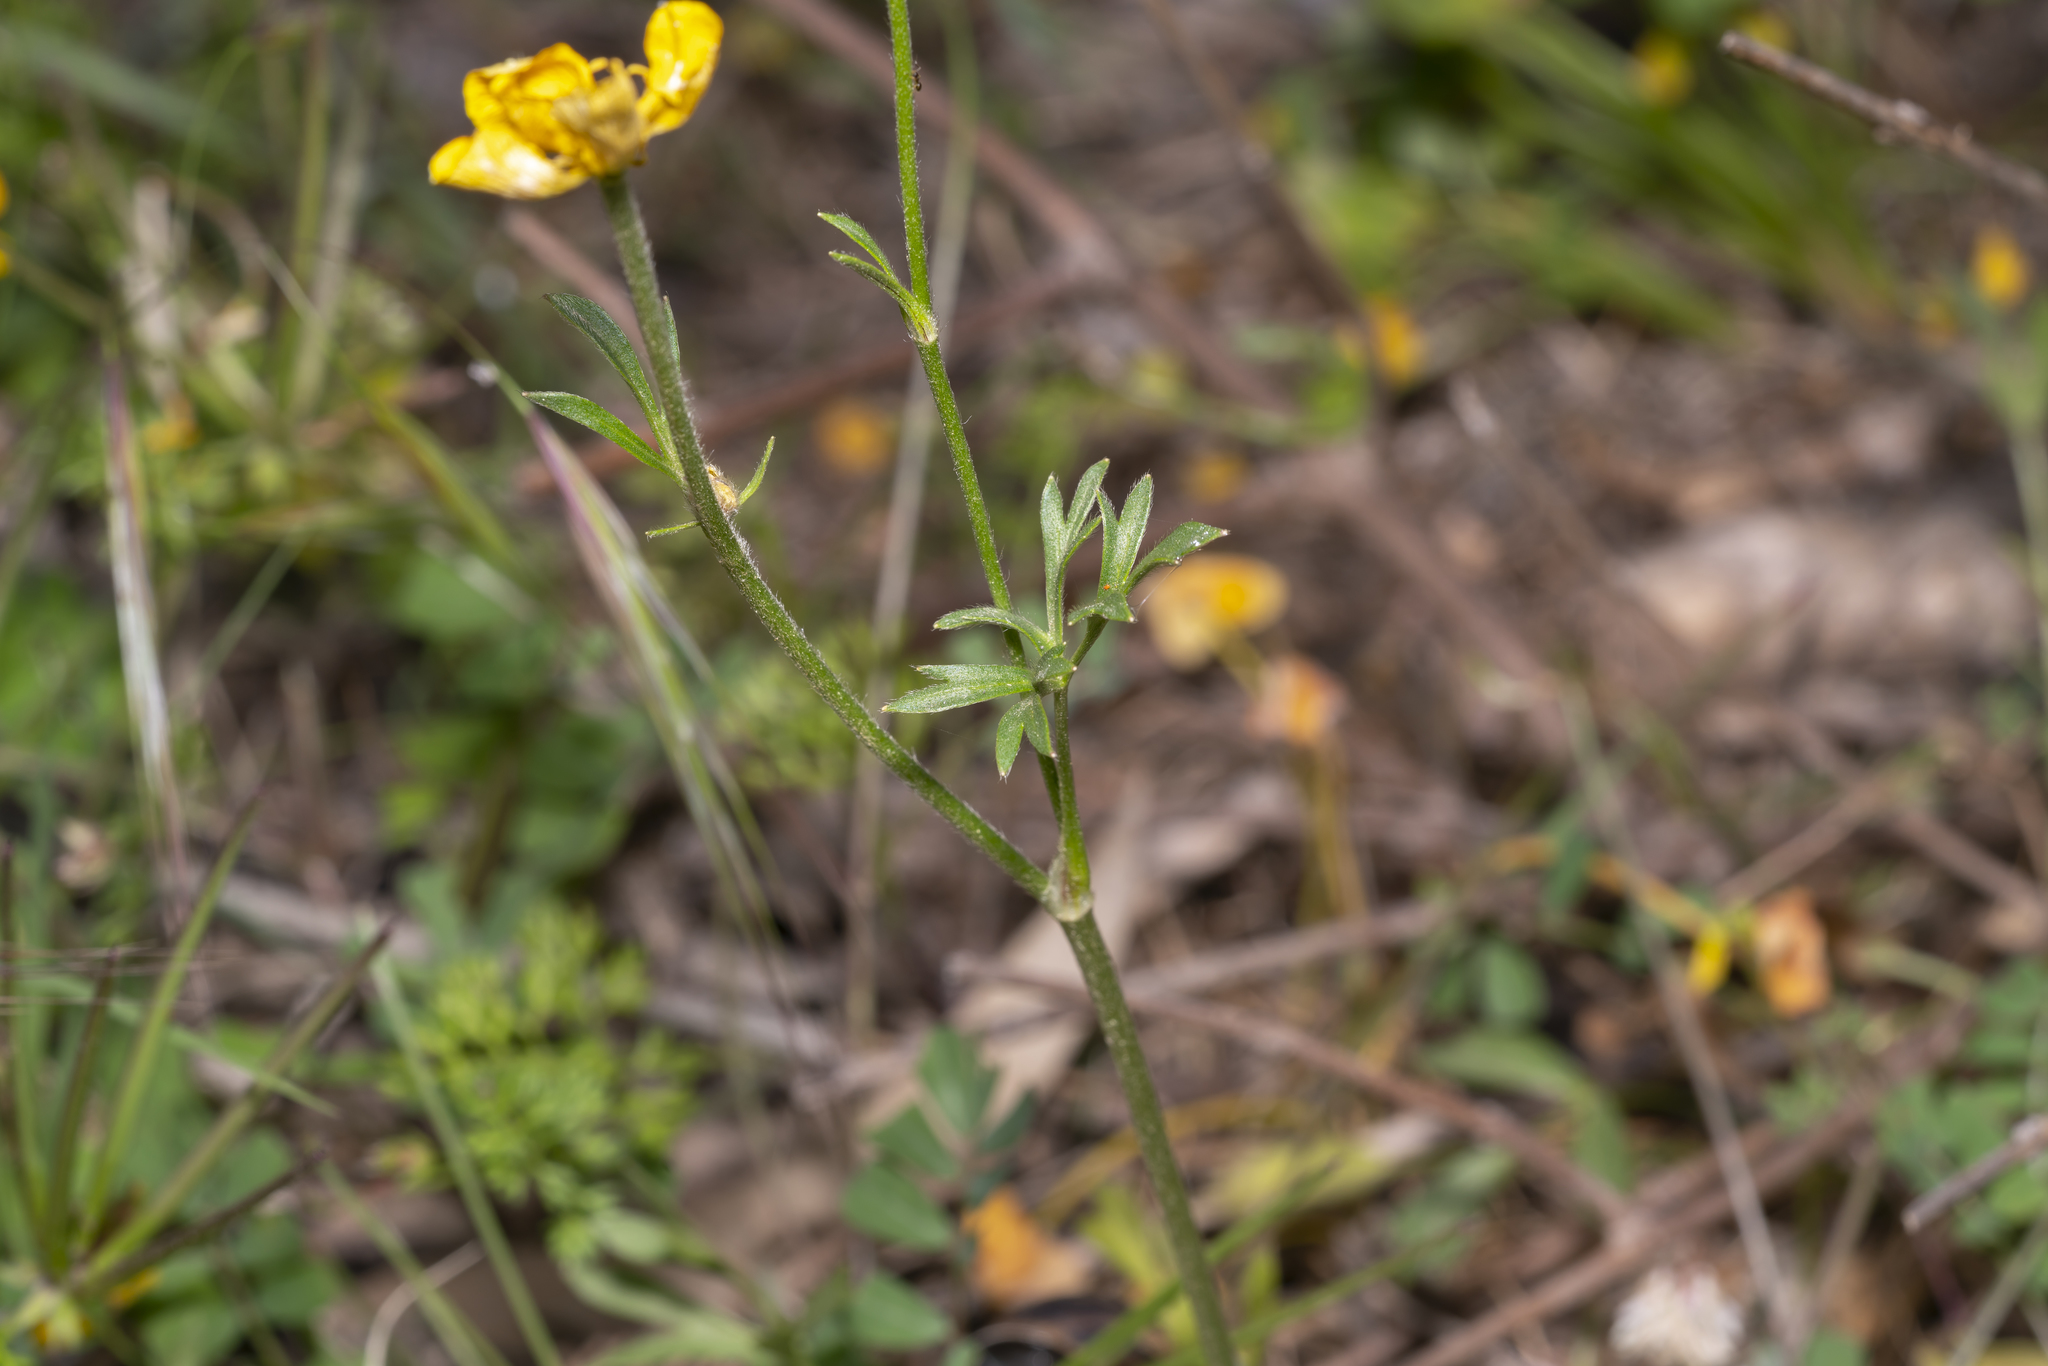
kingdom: Plantae
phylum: Tracheophyta
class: Magnoliopsida
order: Ranunculales
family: Ranunculaceae
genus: Ranunculus
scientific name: Ranunculus paludosus
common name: Jersey buttercup
